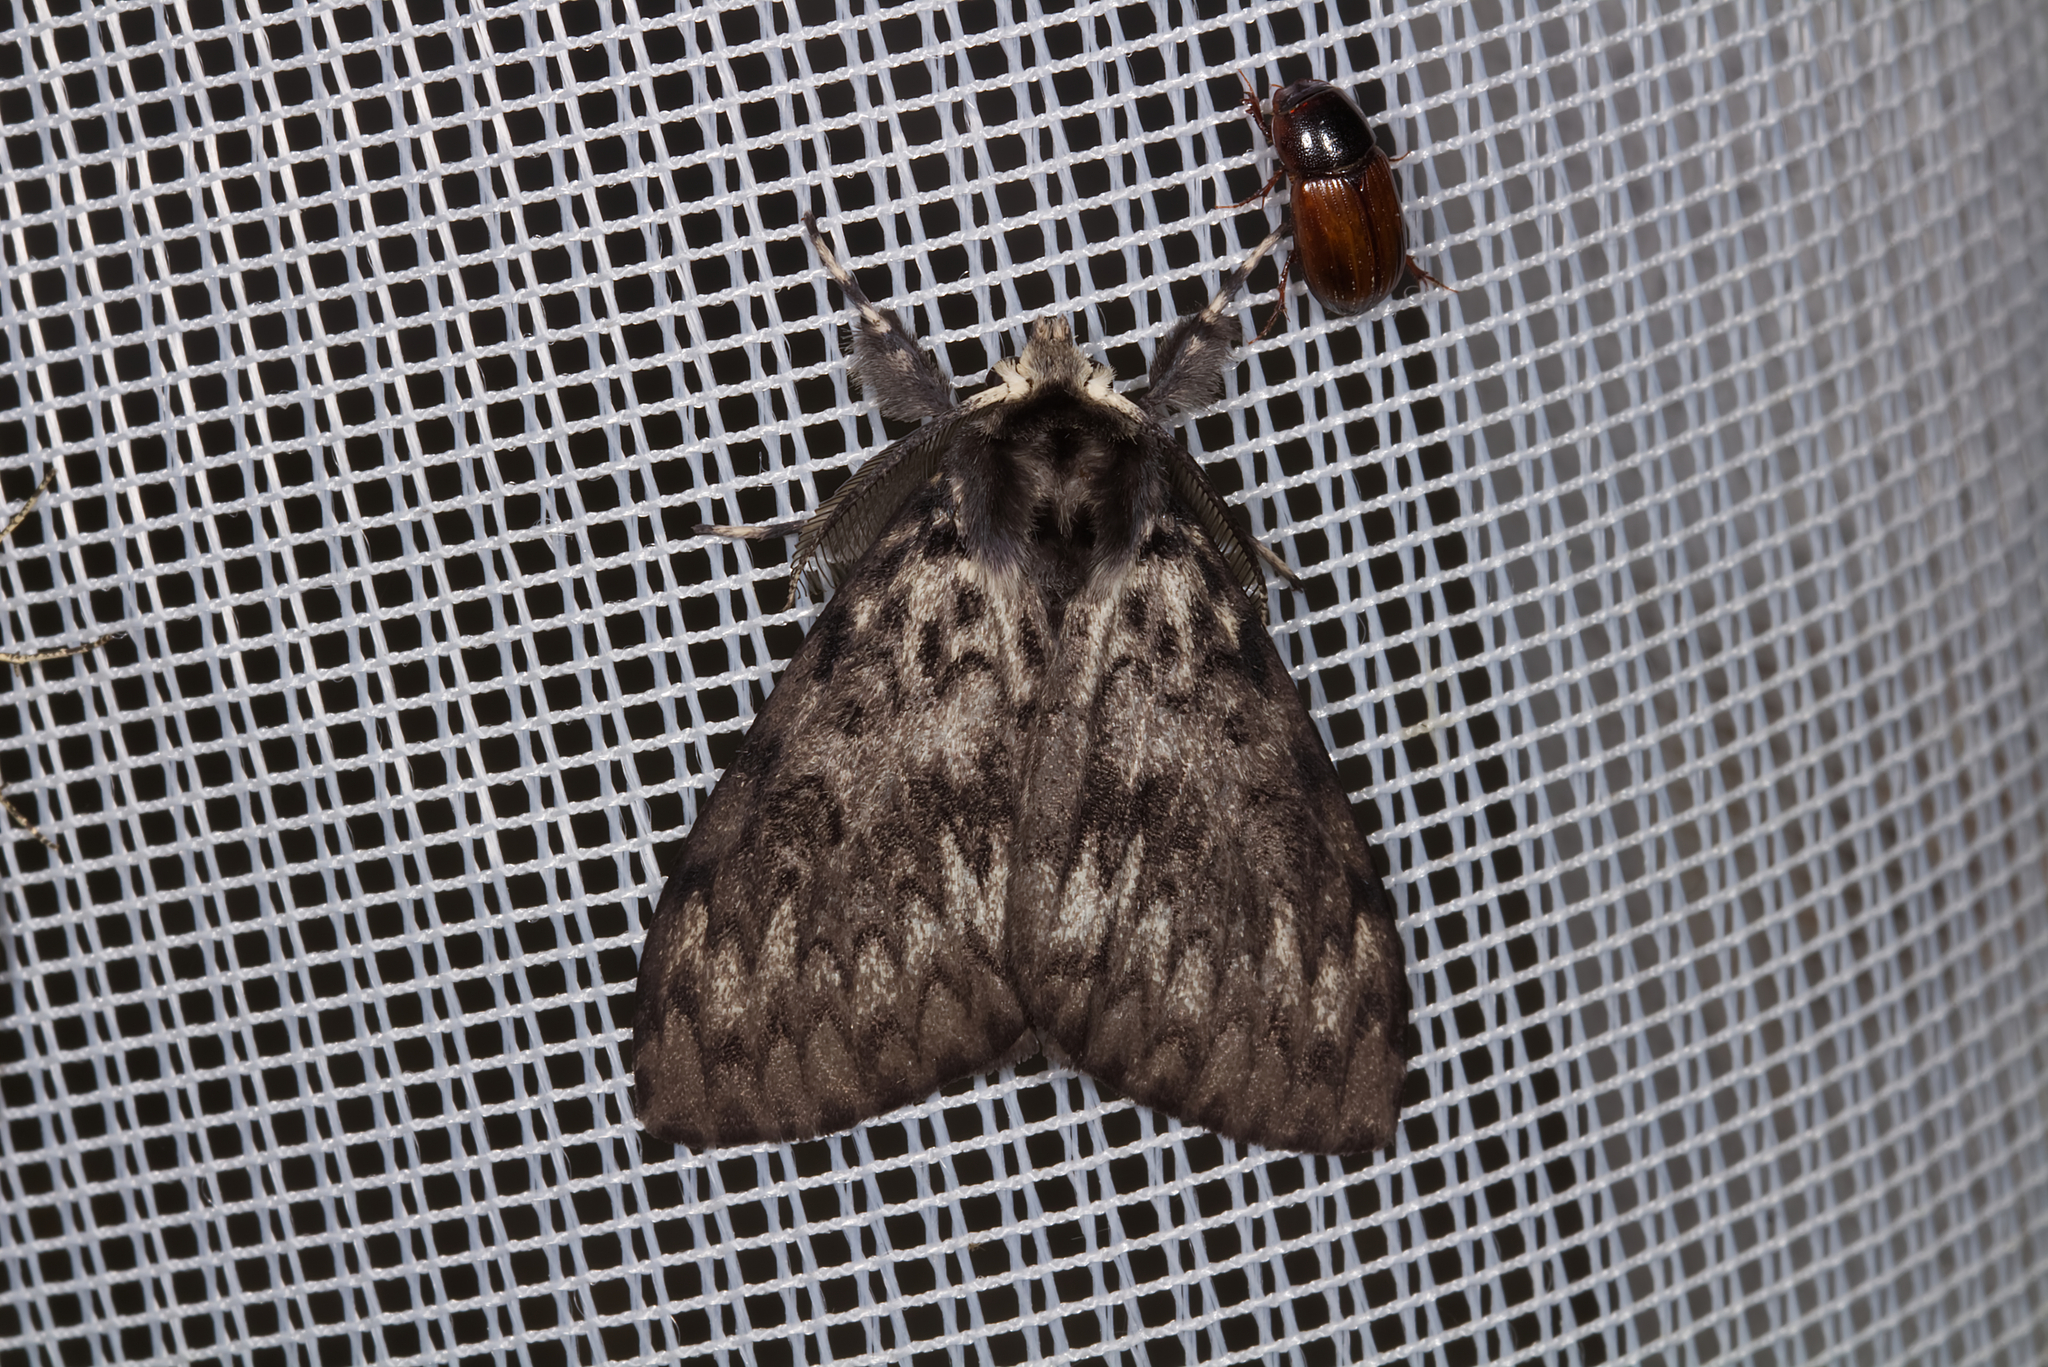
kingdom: Animalia
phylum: Arthropoda
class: Insecta
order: Lepidoptera
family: Erebidae
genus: Lymantria
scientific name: Lymantria monacha
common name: Black arches
